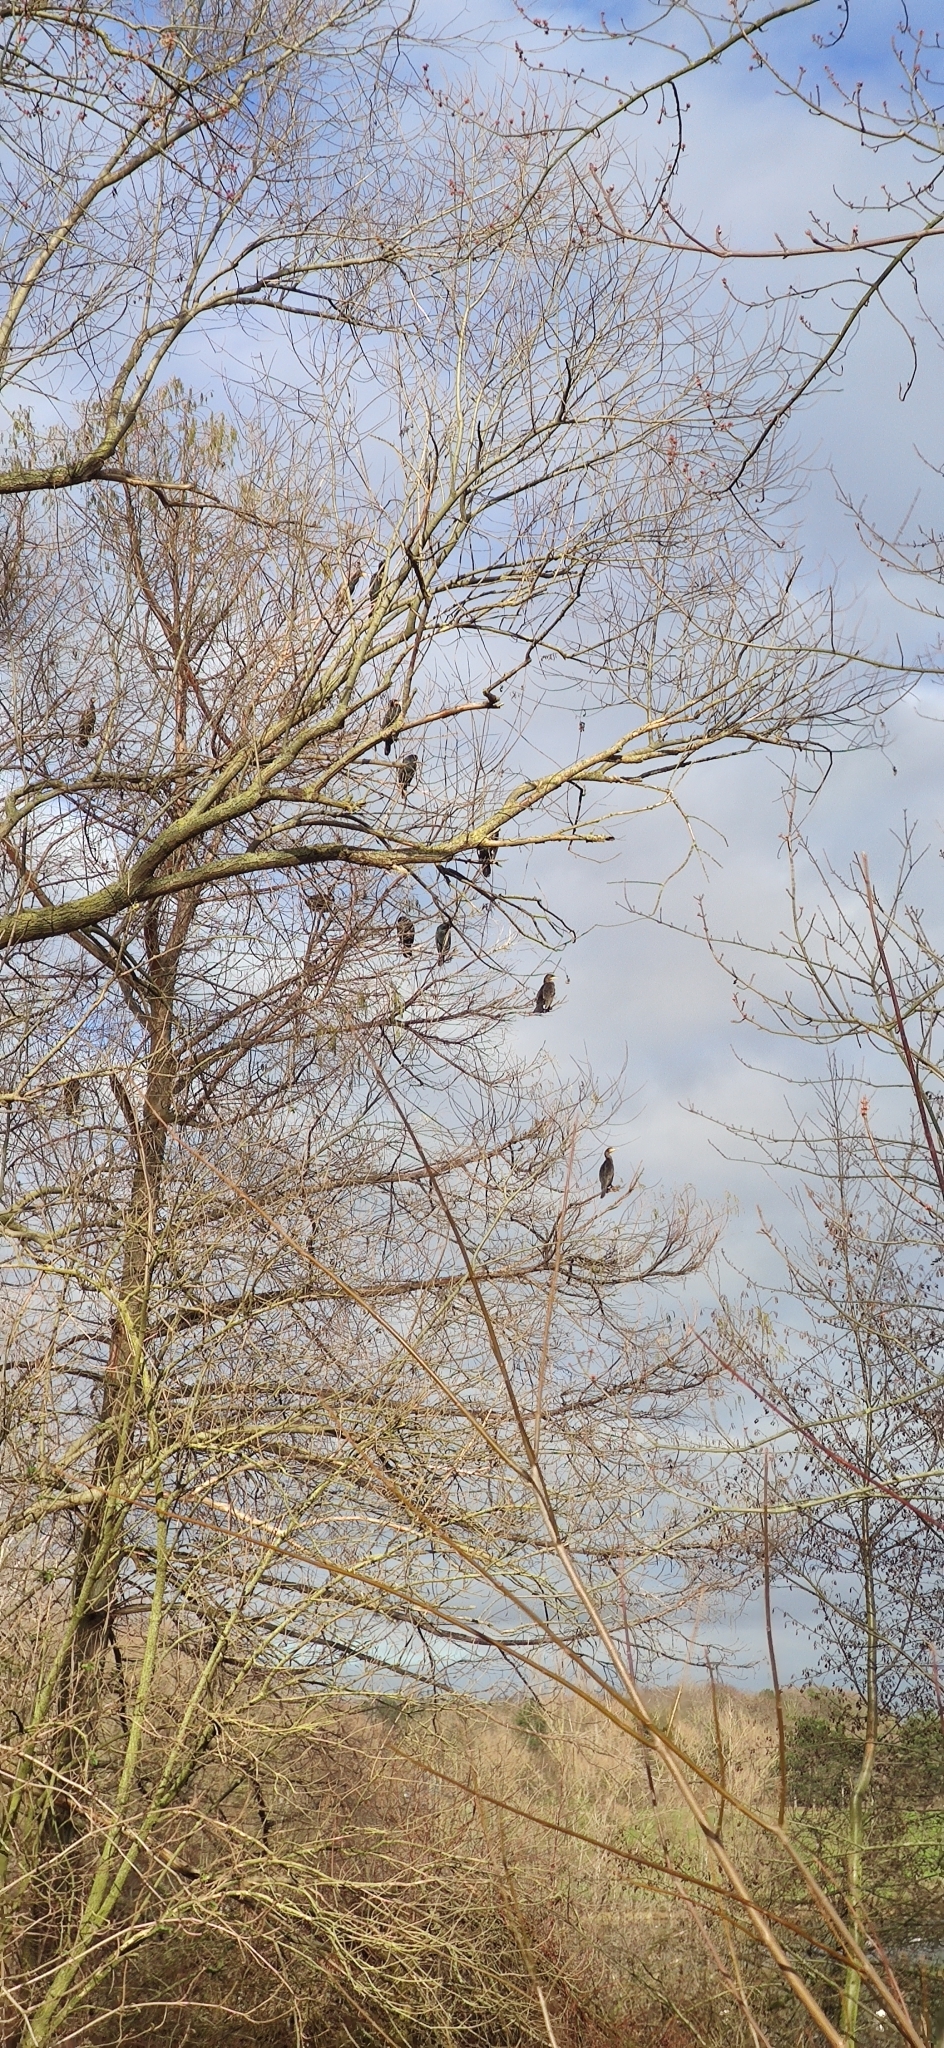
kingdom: Animalia
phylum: Chordata
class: Aves
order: Suliformes
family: Phalacrocoracidae
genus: Phalacrocorax
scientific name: Phalacrocorax carbo
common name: Great cormorant
